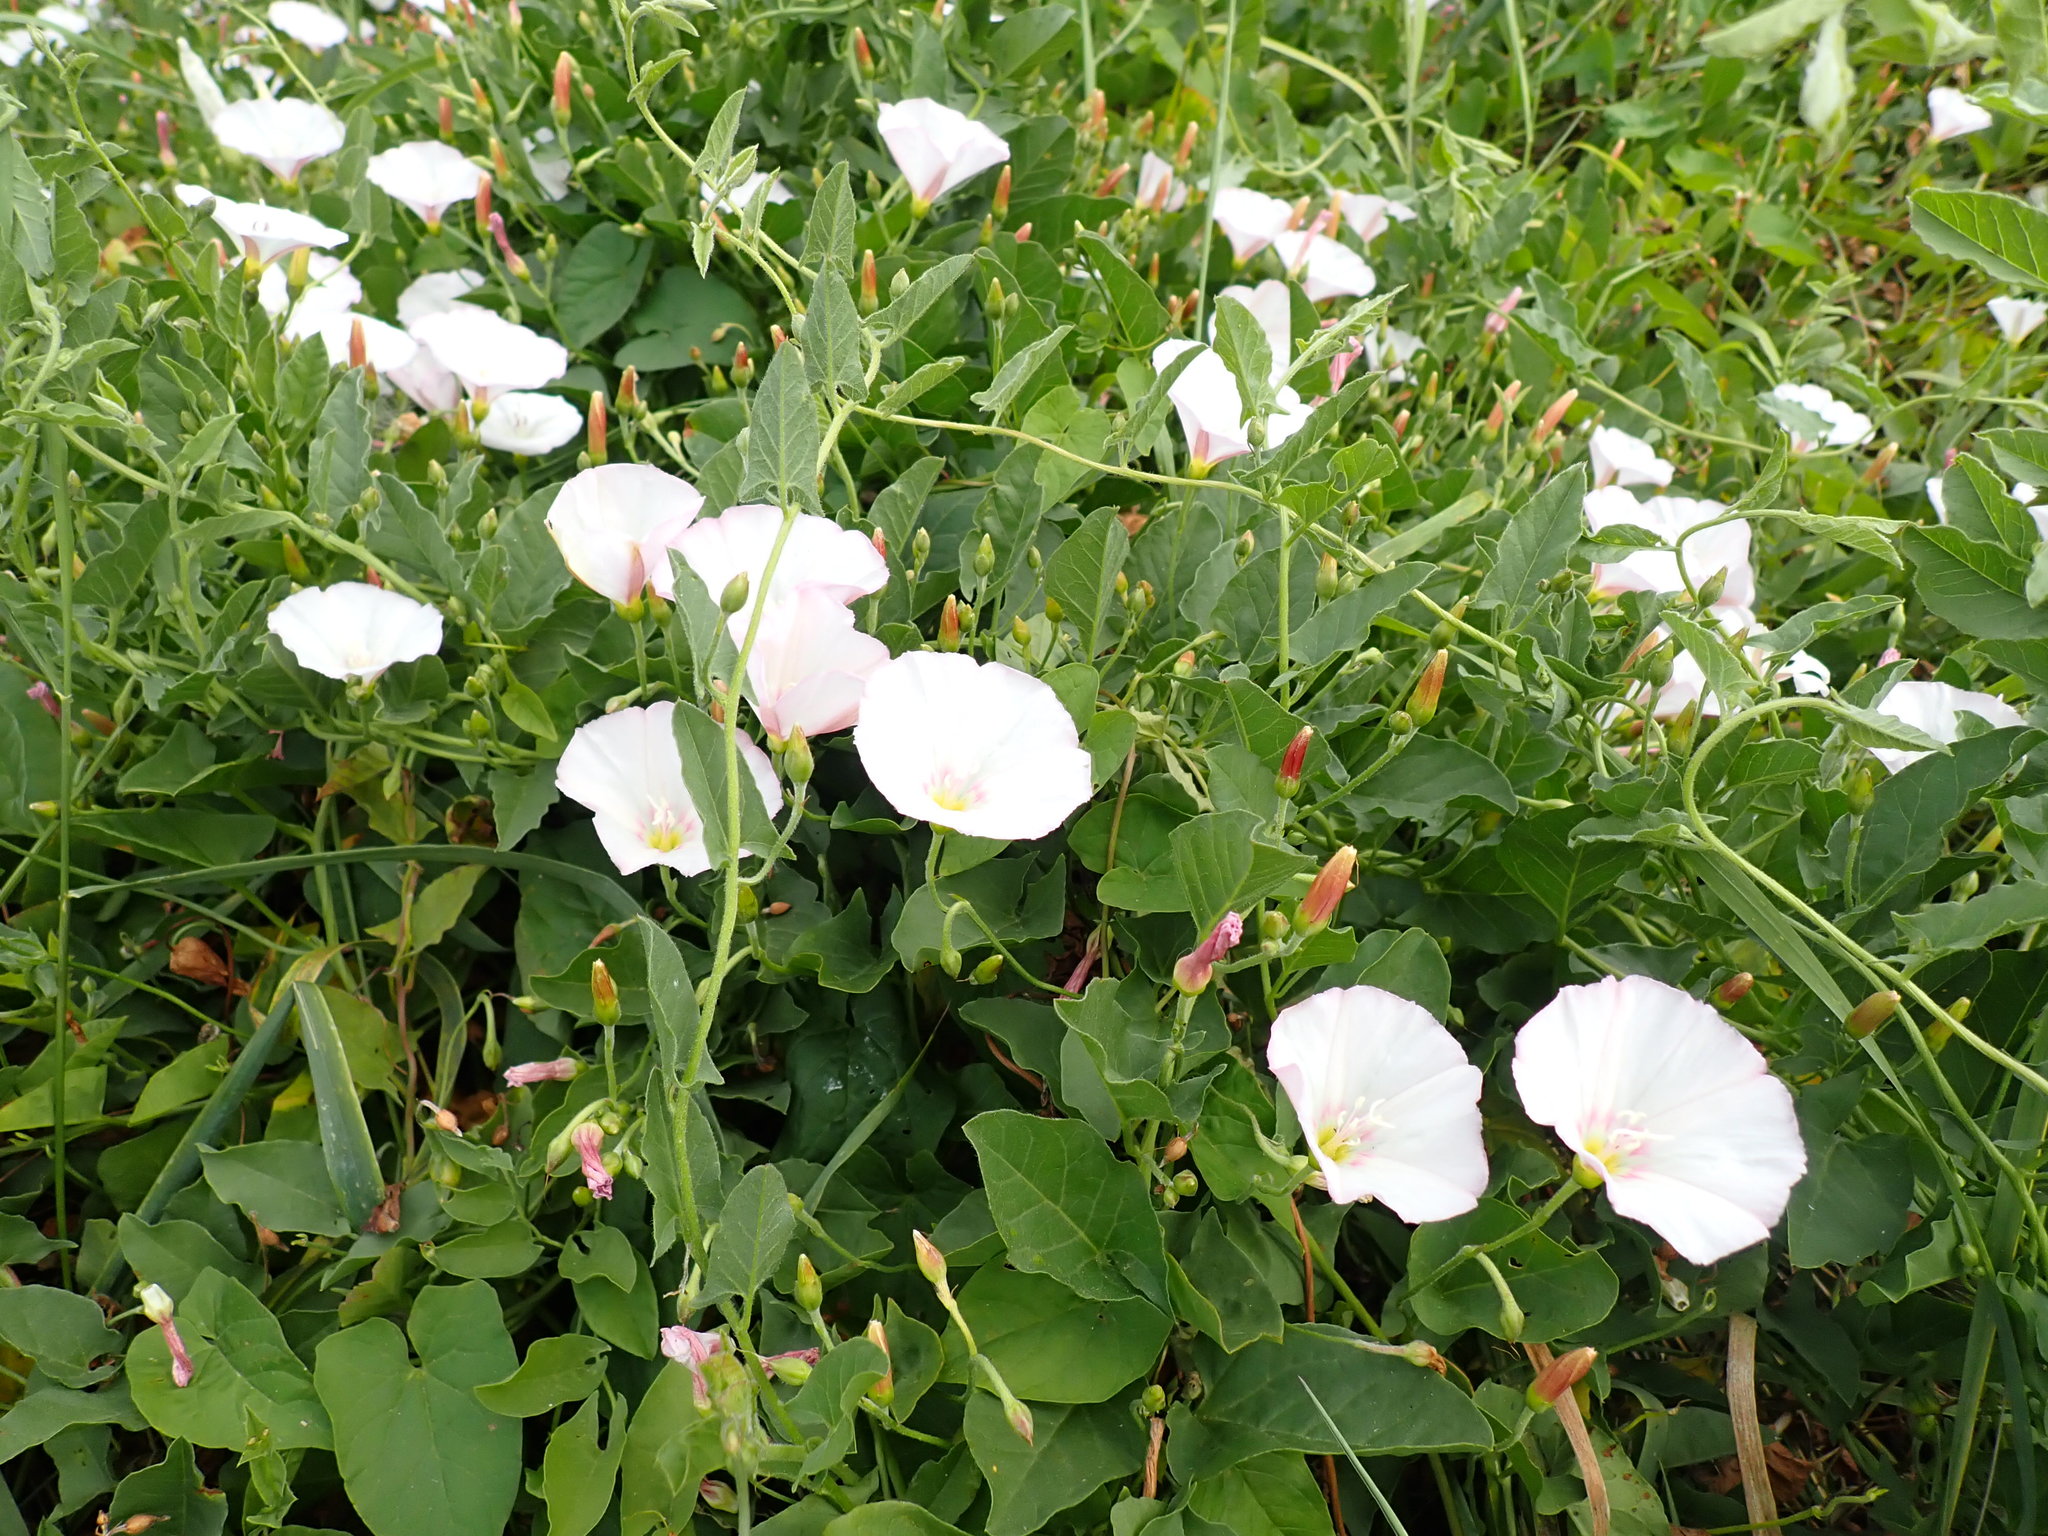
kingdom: Plantae
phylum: Tracheophyta
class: Magnoliopsida
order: Solanales
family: Convolvulaceae
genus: Convolvulus
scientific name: Convolvulus arvensis
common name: Field bindweed
